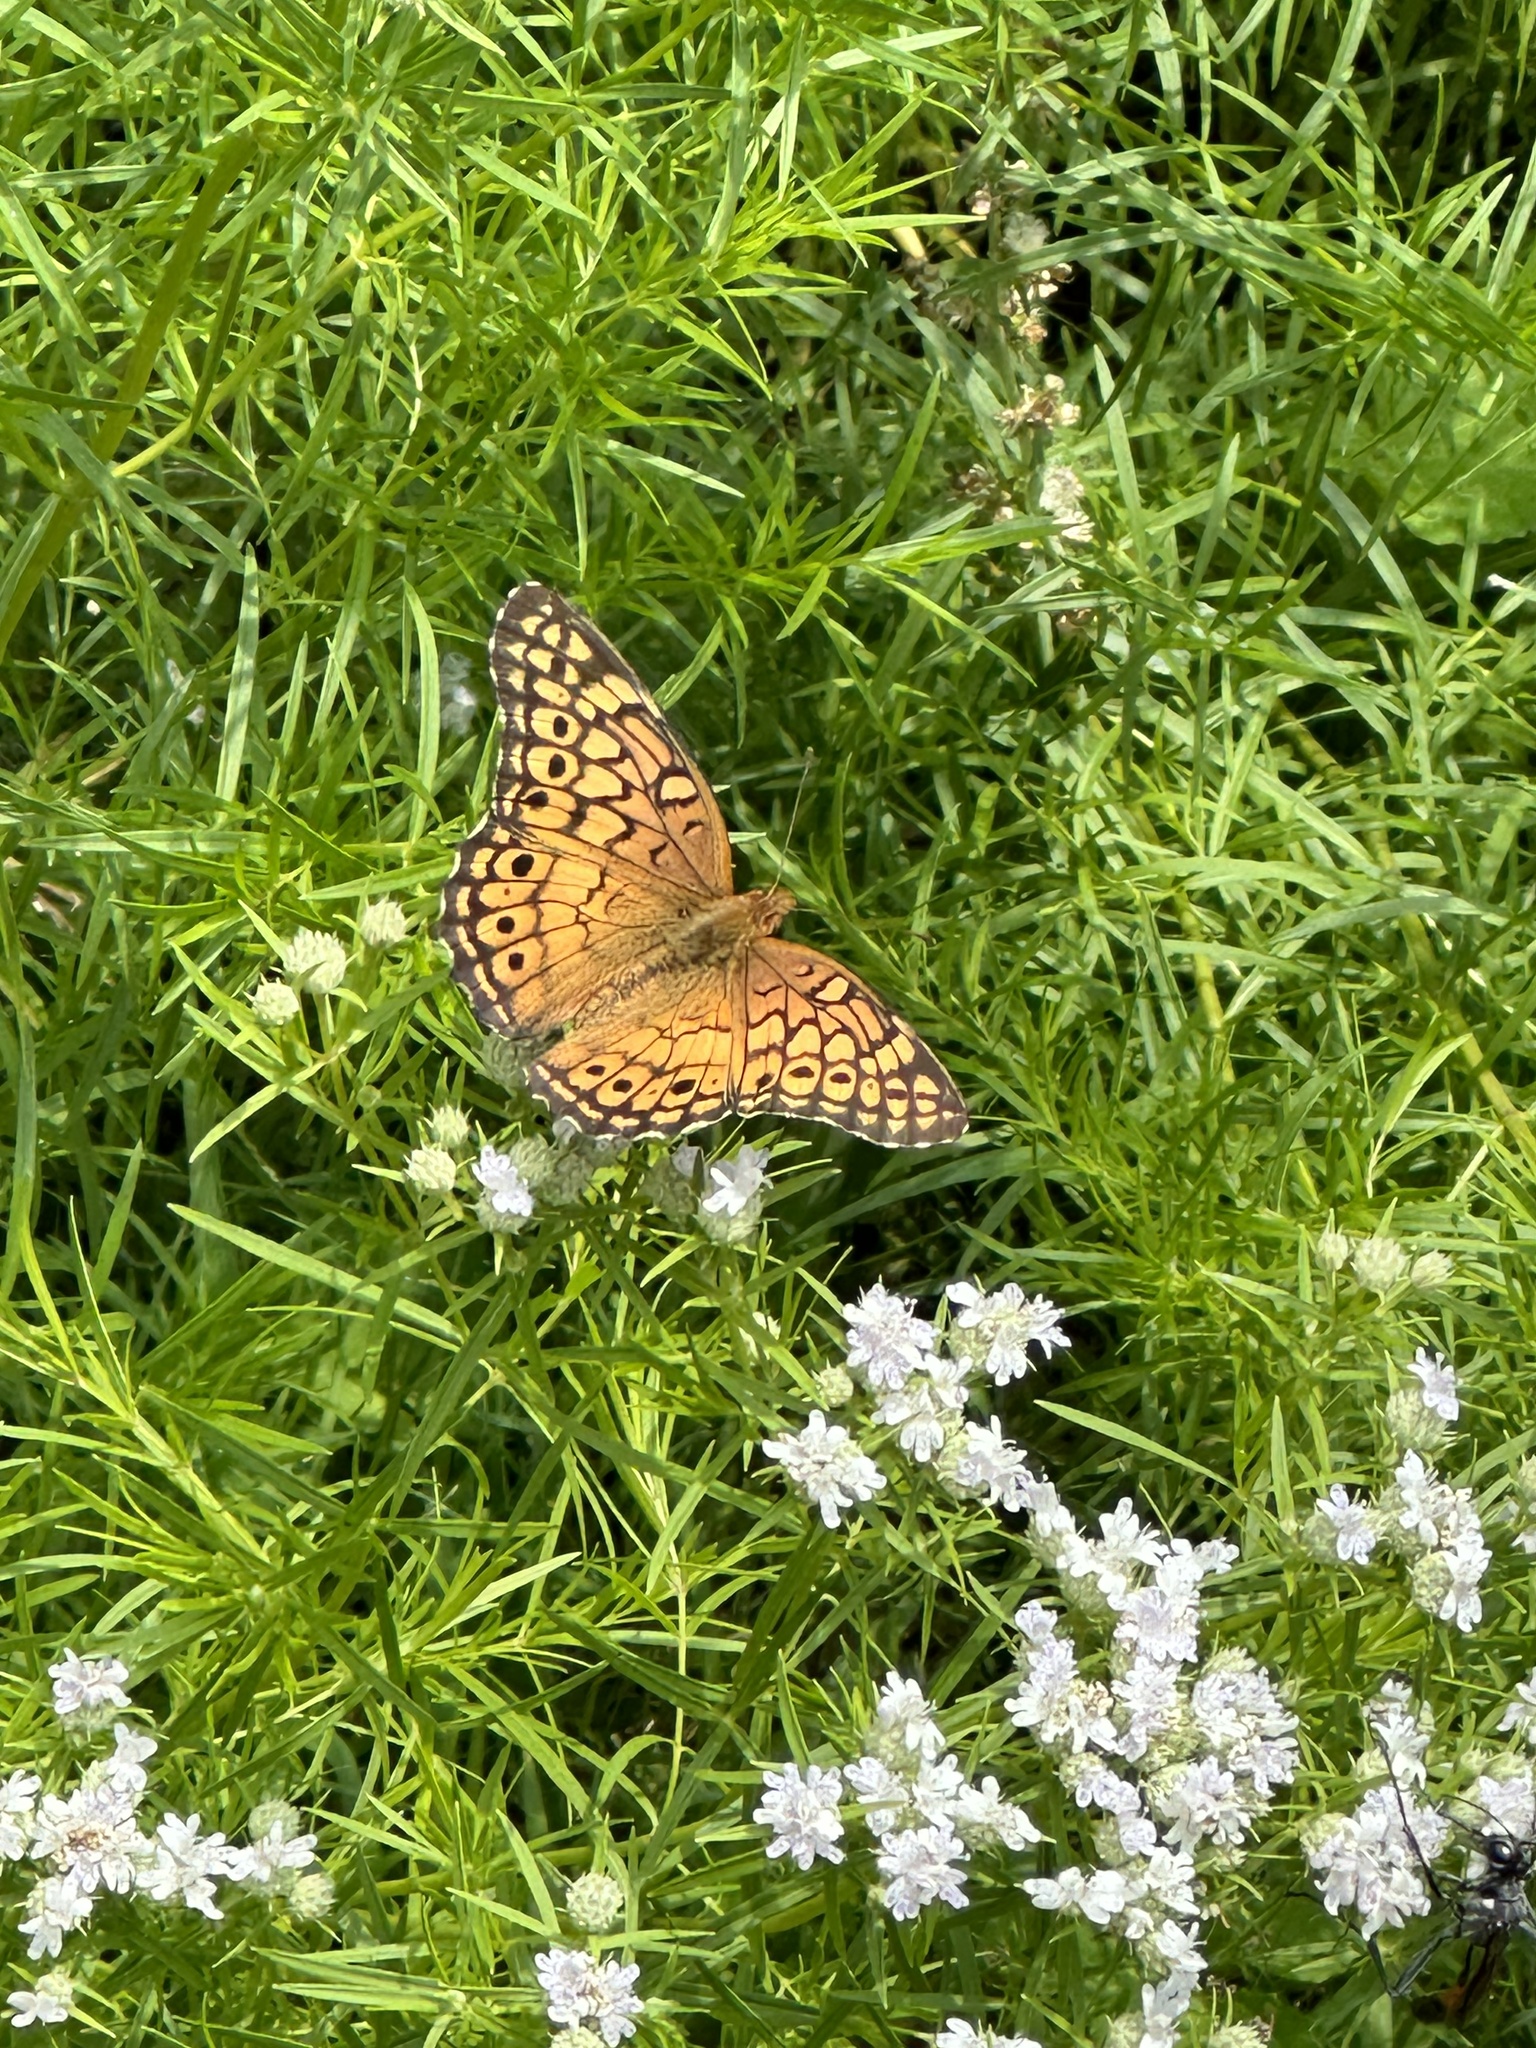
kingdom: Animalia
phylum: Arthropoda
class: Insecta
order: Lepidoptera
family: Nymphalidae
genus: Euptoieta
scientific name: Euptoieta claudia
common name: Variegated fritillary
